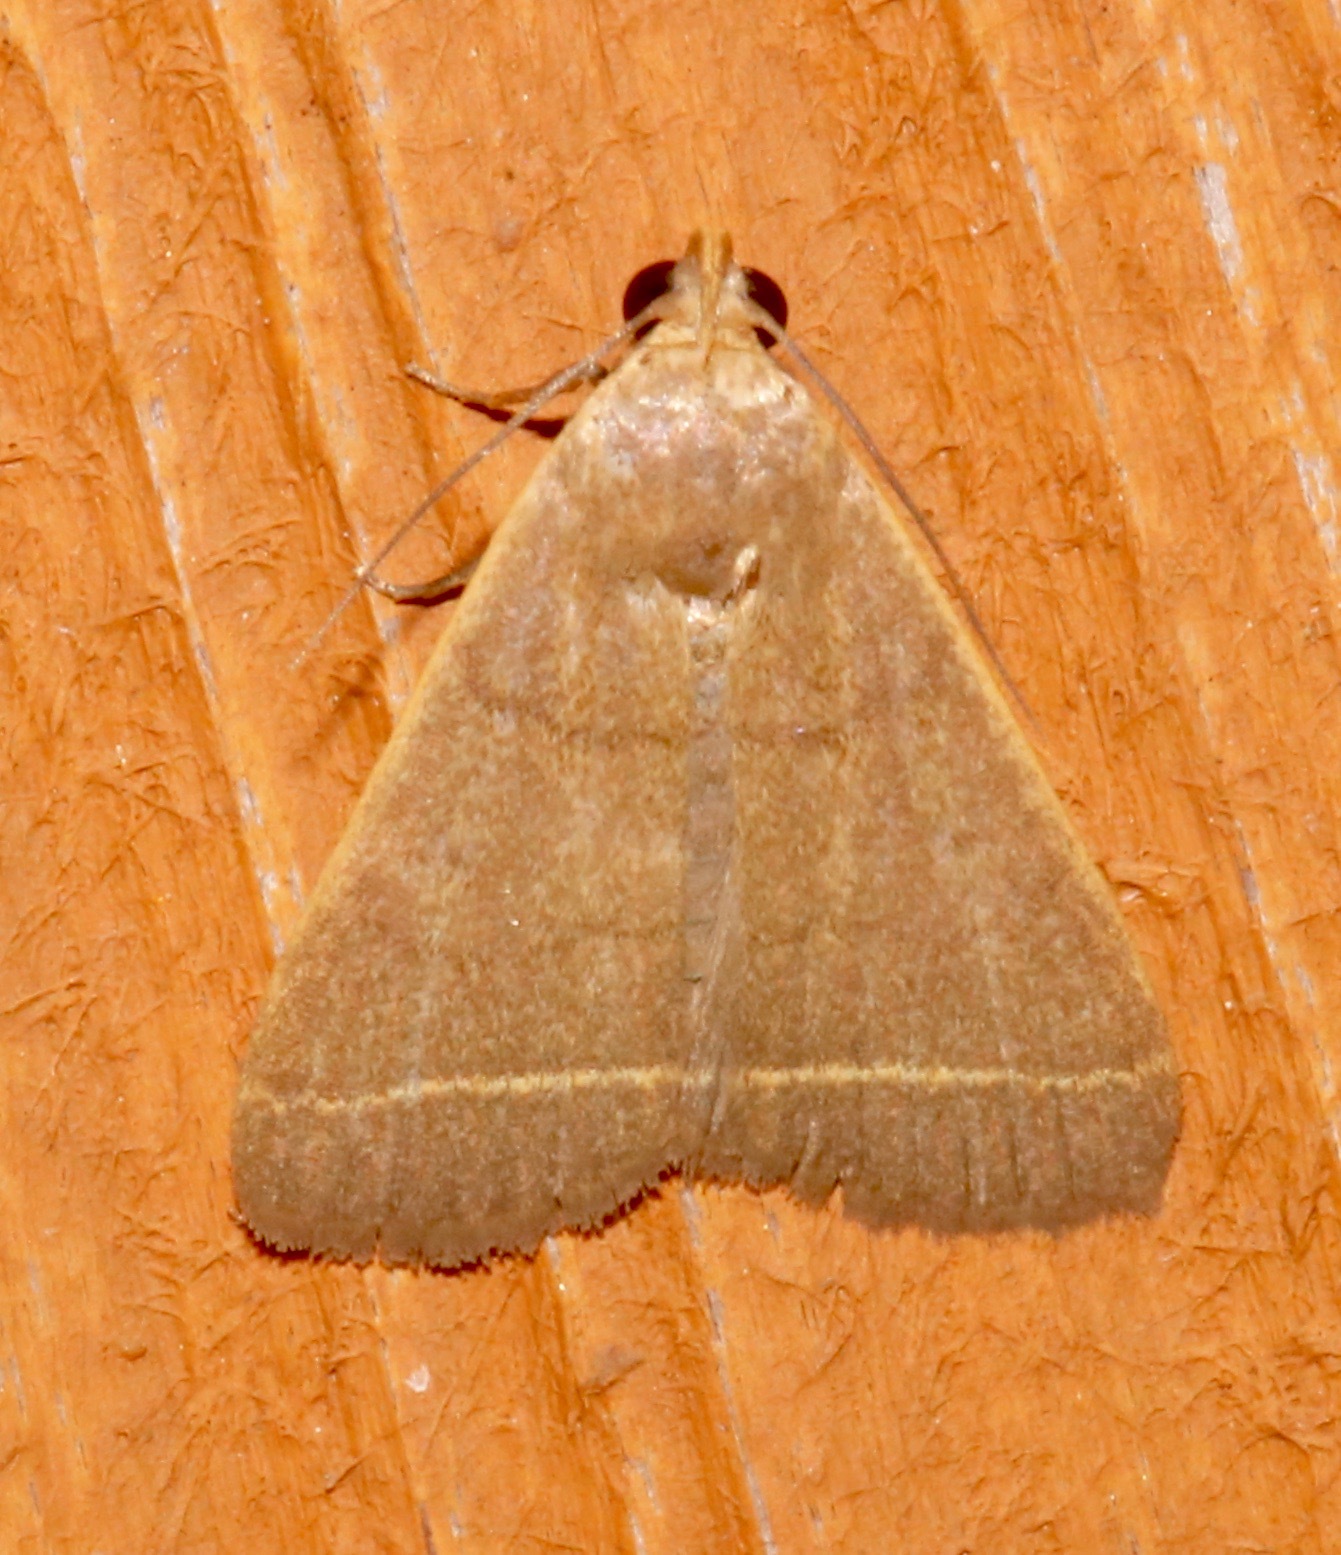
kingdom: Animalia
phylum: Arthropoda
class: Insecta
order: Lepidoptera
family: Erebidae
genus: Simplicia
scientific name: Simplicia cornicalis
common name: Tiki hut litter moth
